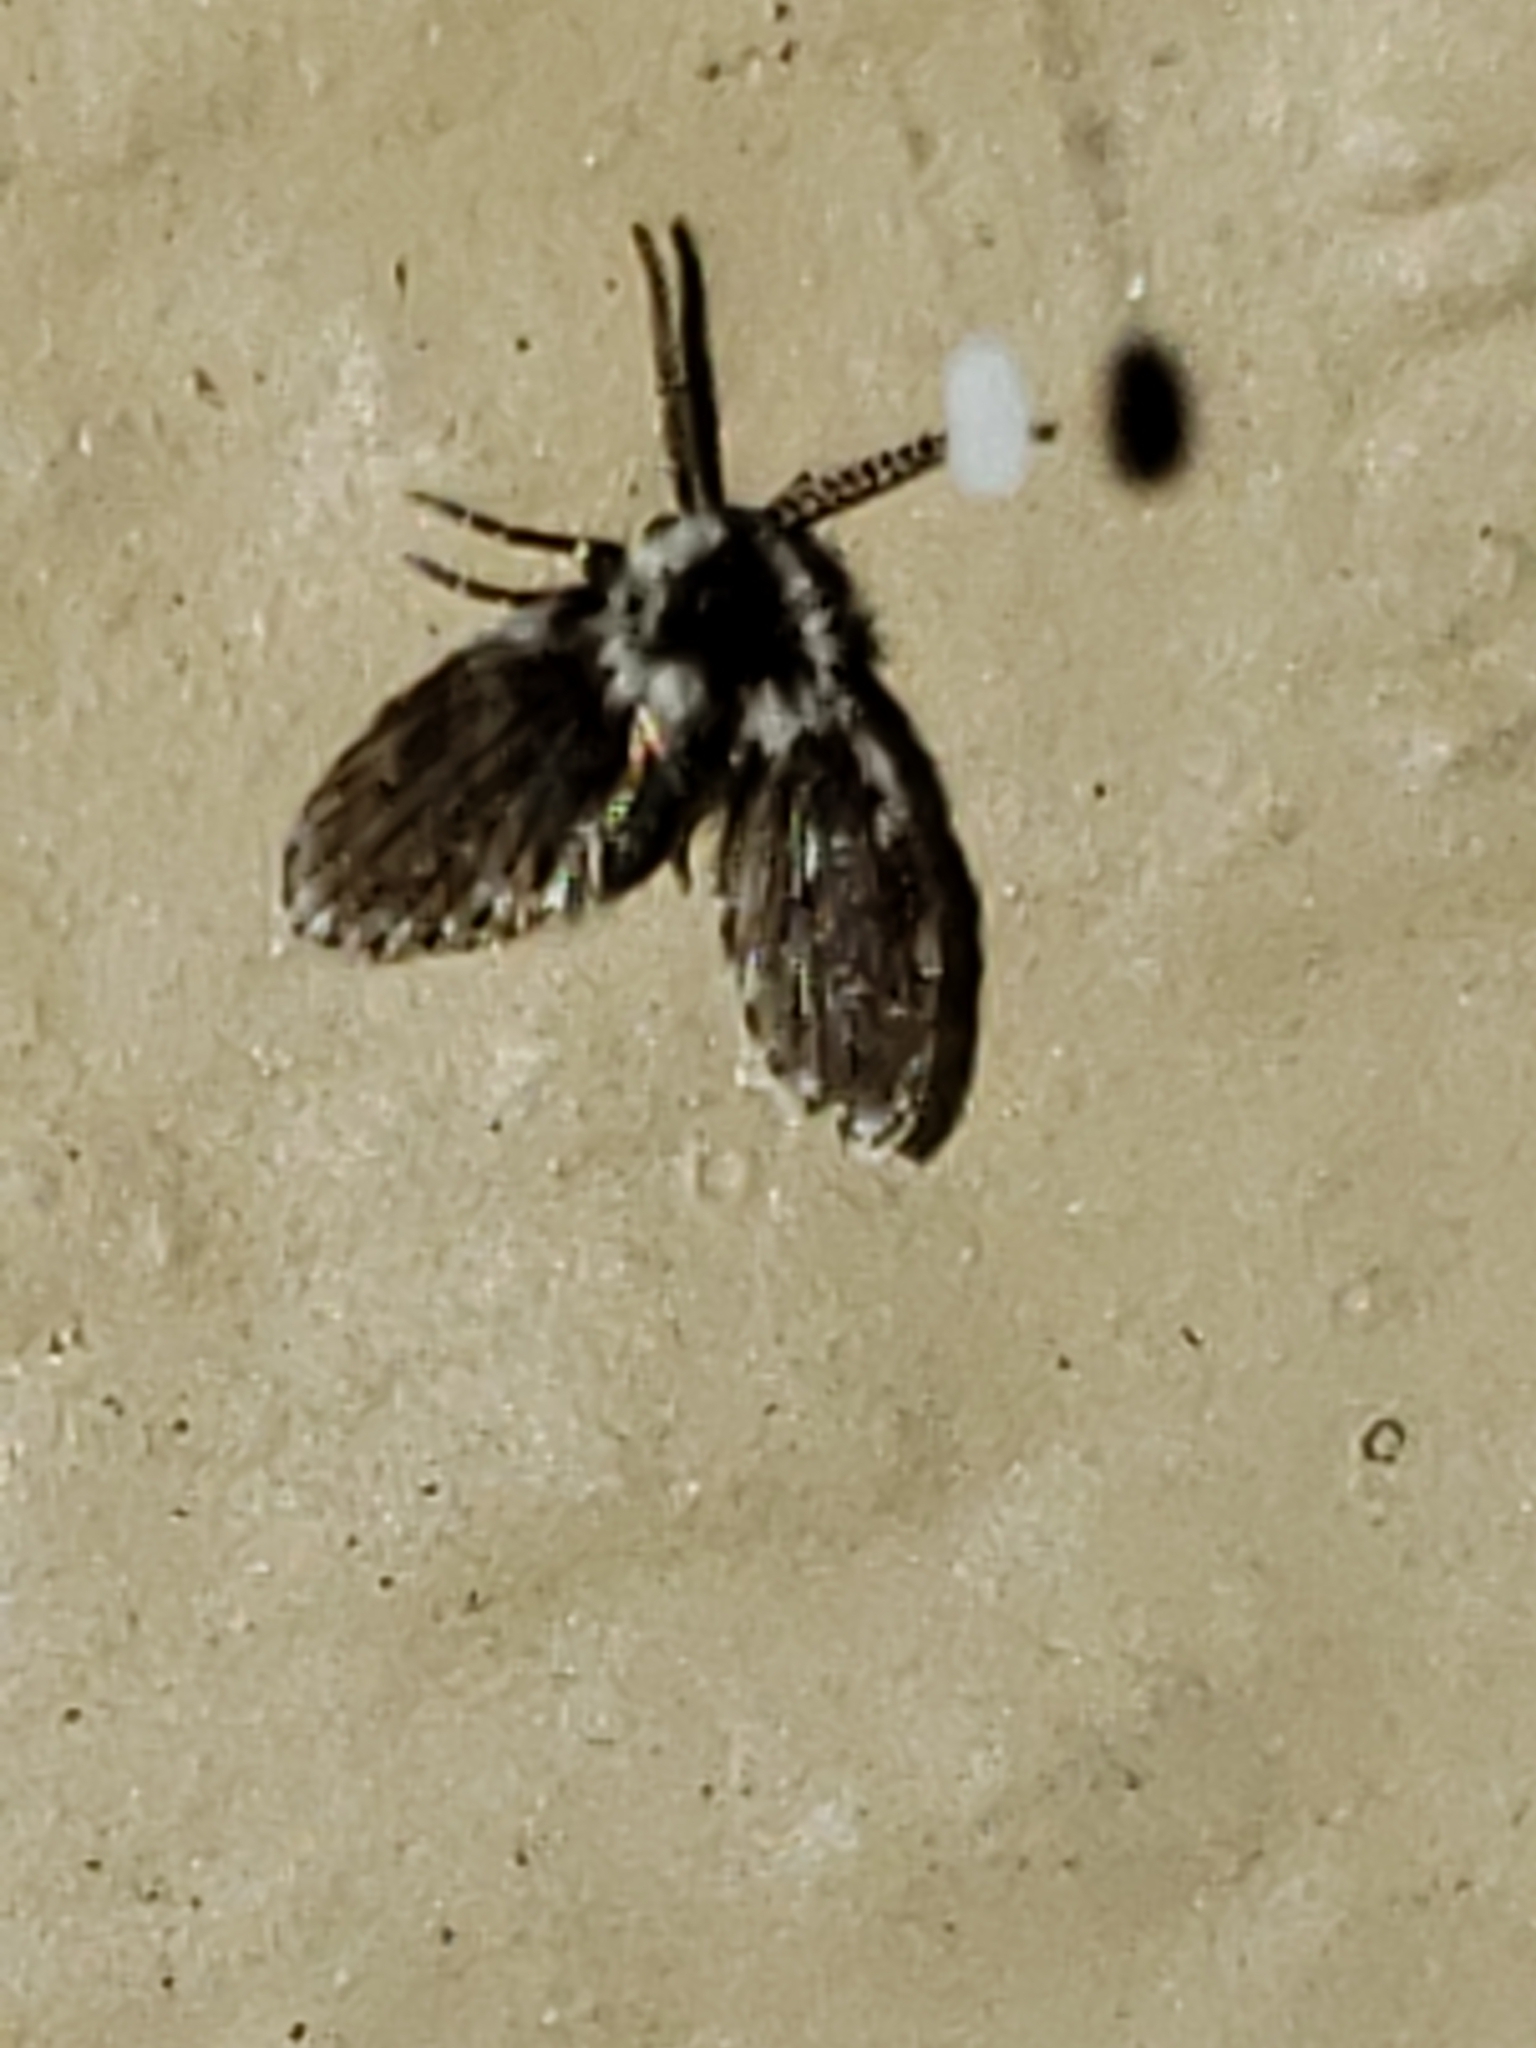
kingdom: Animalia
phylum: Arthropoda
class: Insecta
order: Diptera
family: Psychodidae
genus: Lepiseodina
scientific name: Lepiseodina
